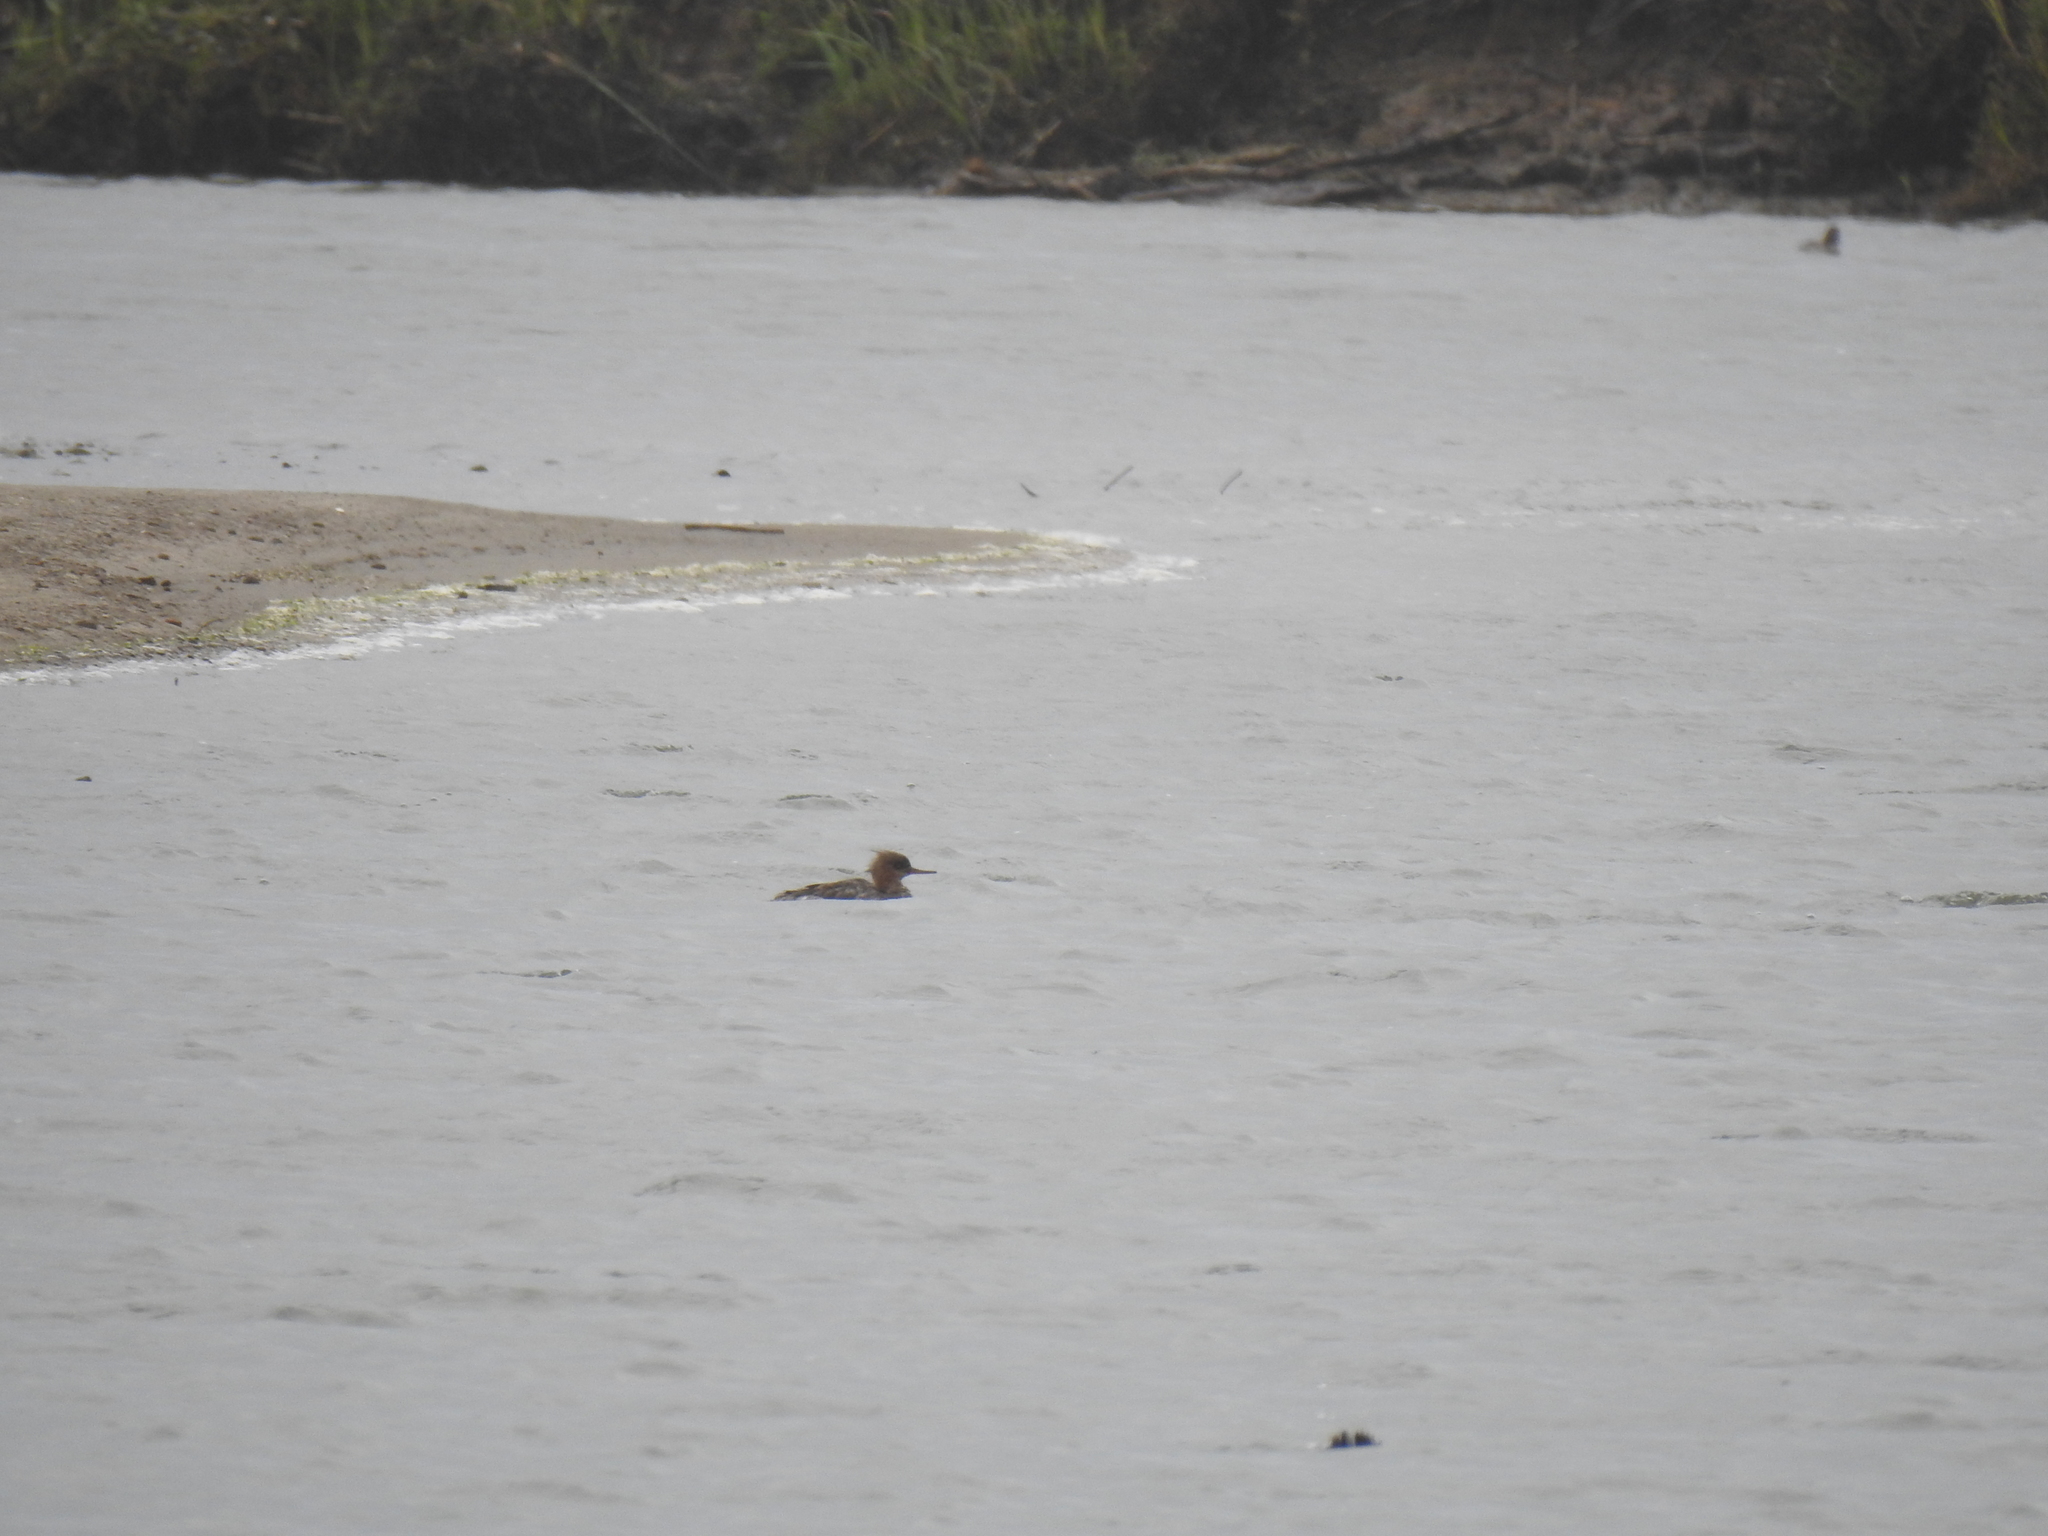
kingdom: Animalia
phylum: Chordata
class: Aves
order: Anseriformes
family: Anatidae
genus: Mergus
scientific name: Mergus serrator
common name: Red-breasted merganser
